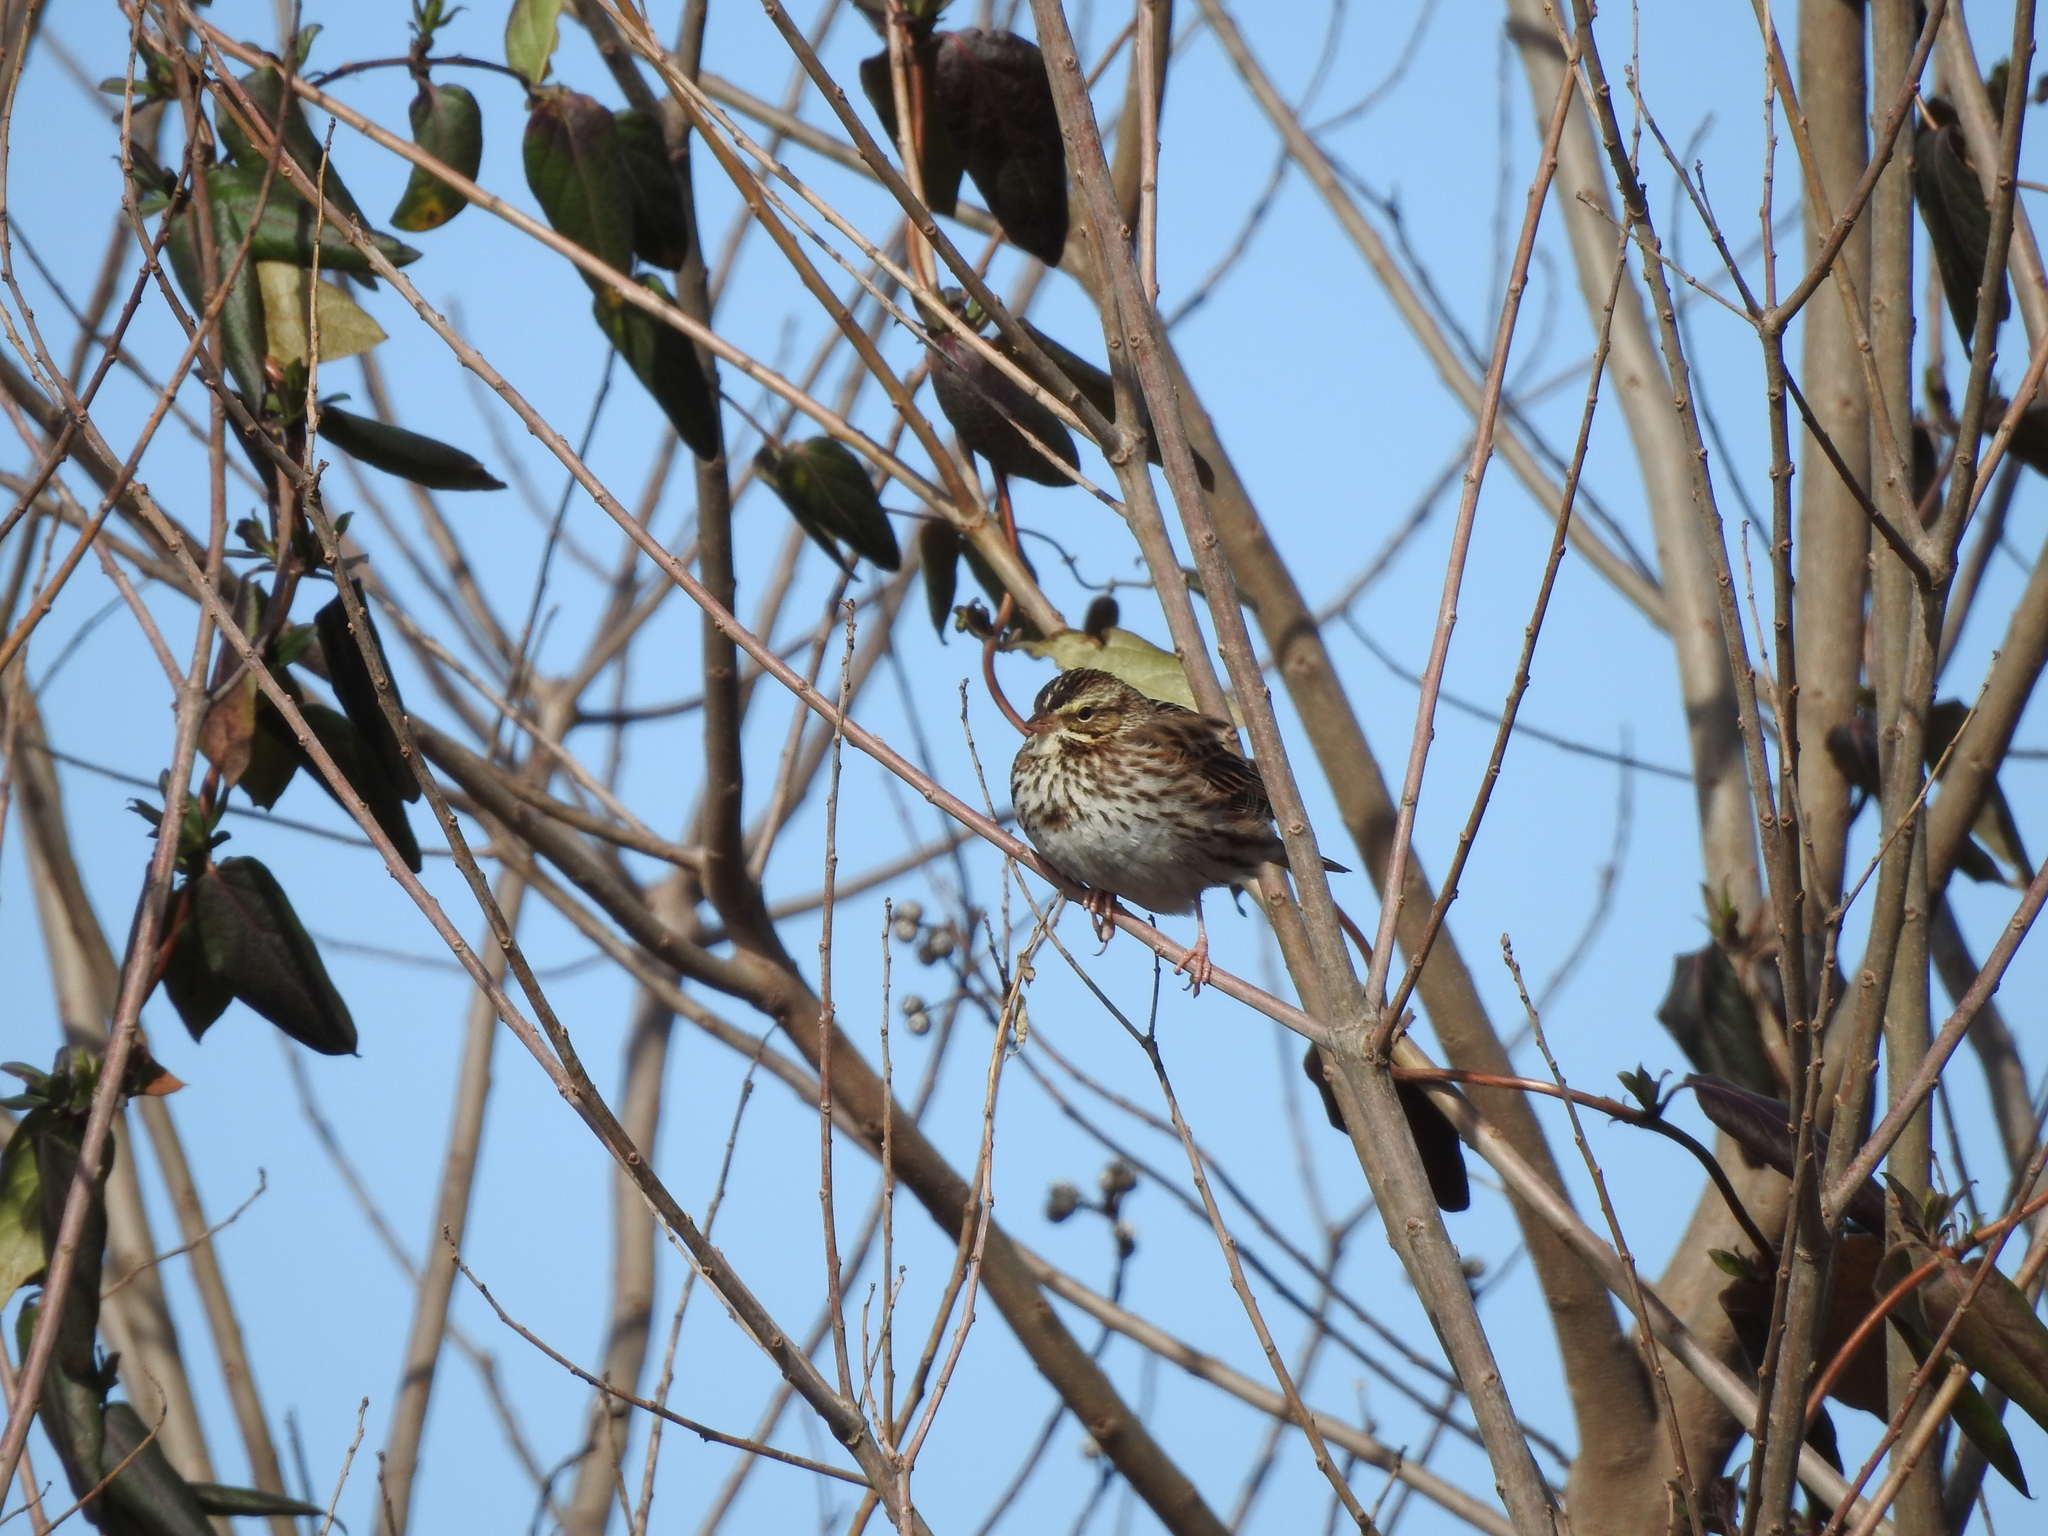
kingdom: Animalia
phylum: Chordata
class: Aves
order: Passeriformes
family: Passerellidae
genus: Passerculus
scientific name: Passerculus sandwichensis
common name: Savannah sparrow
